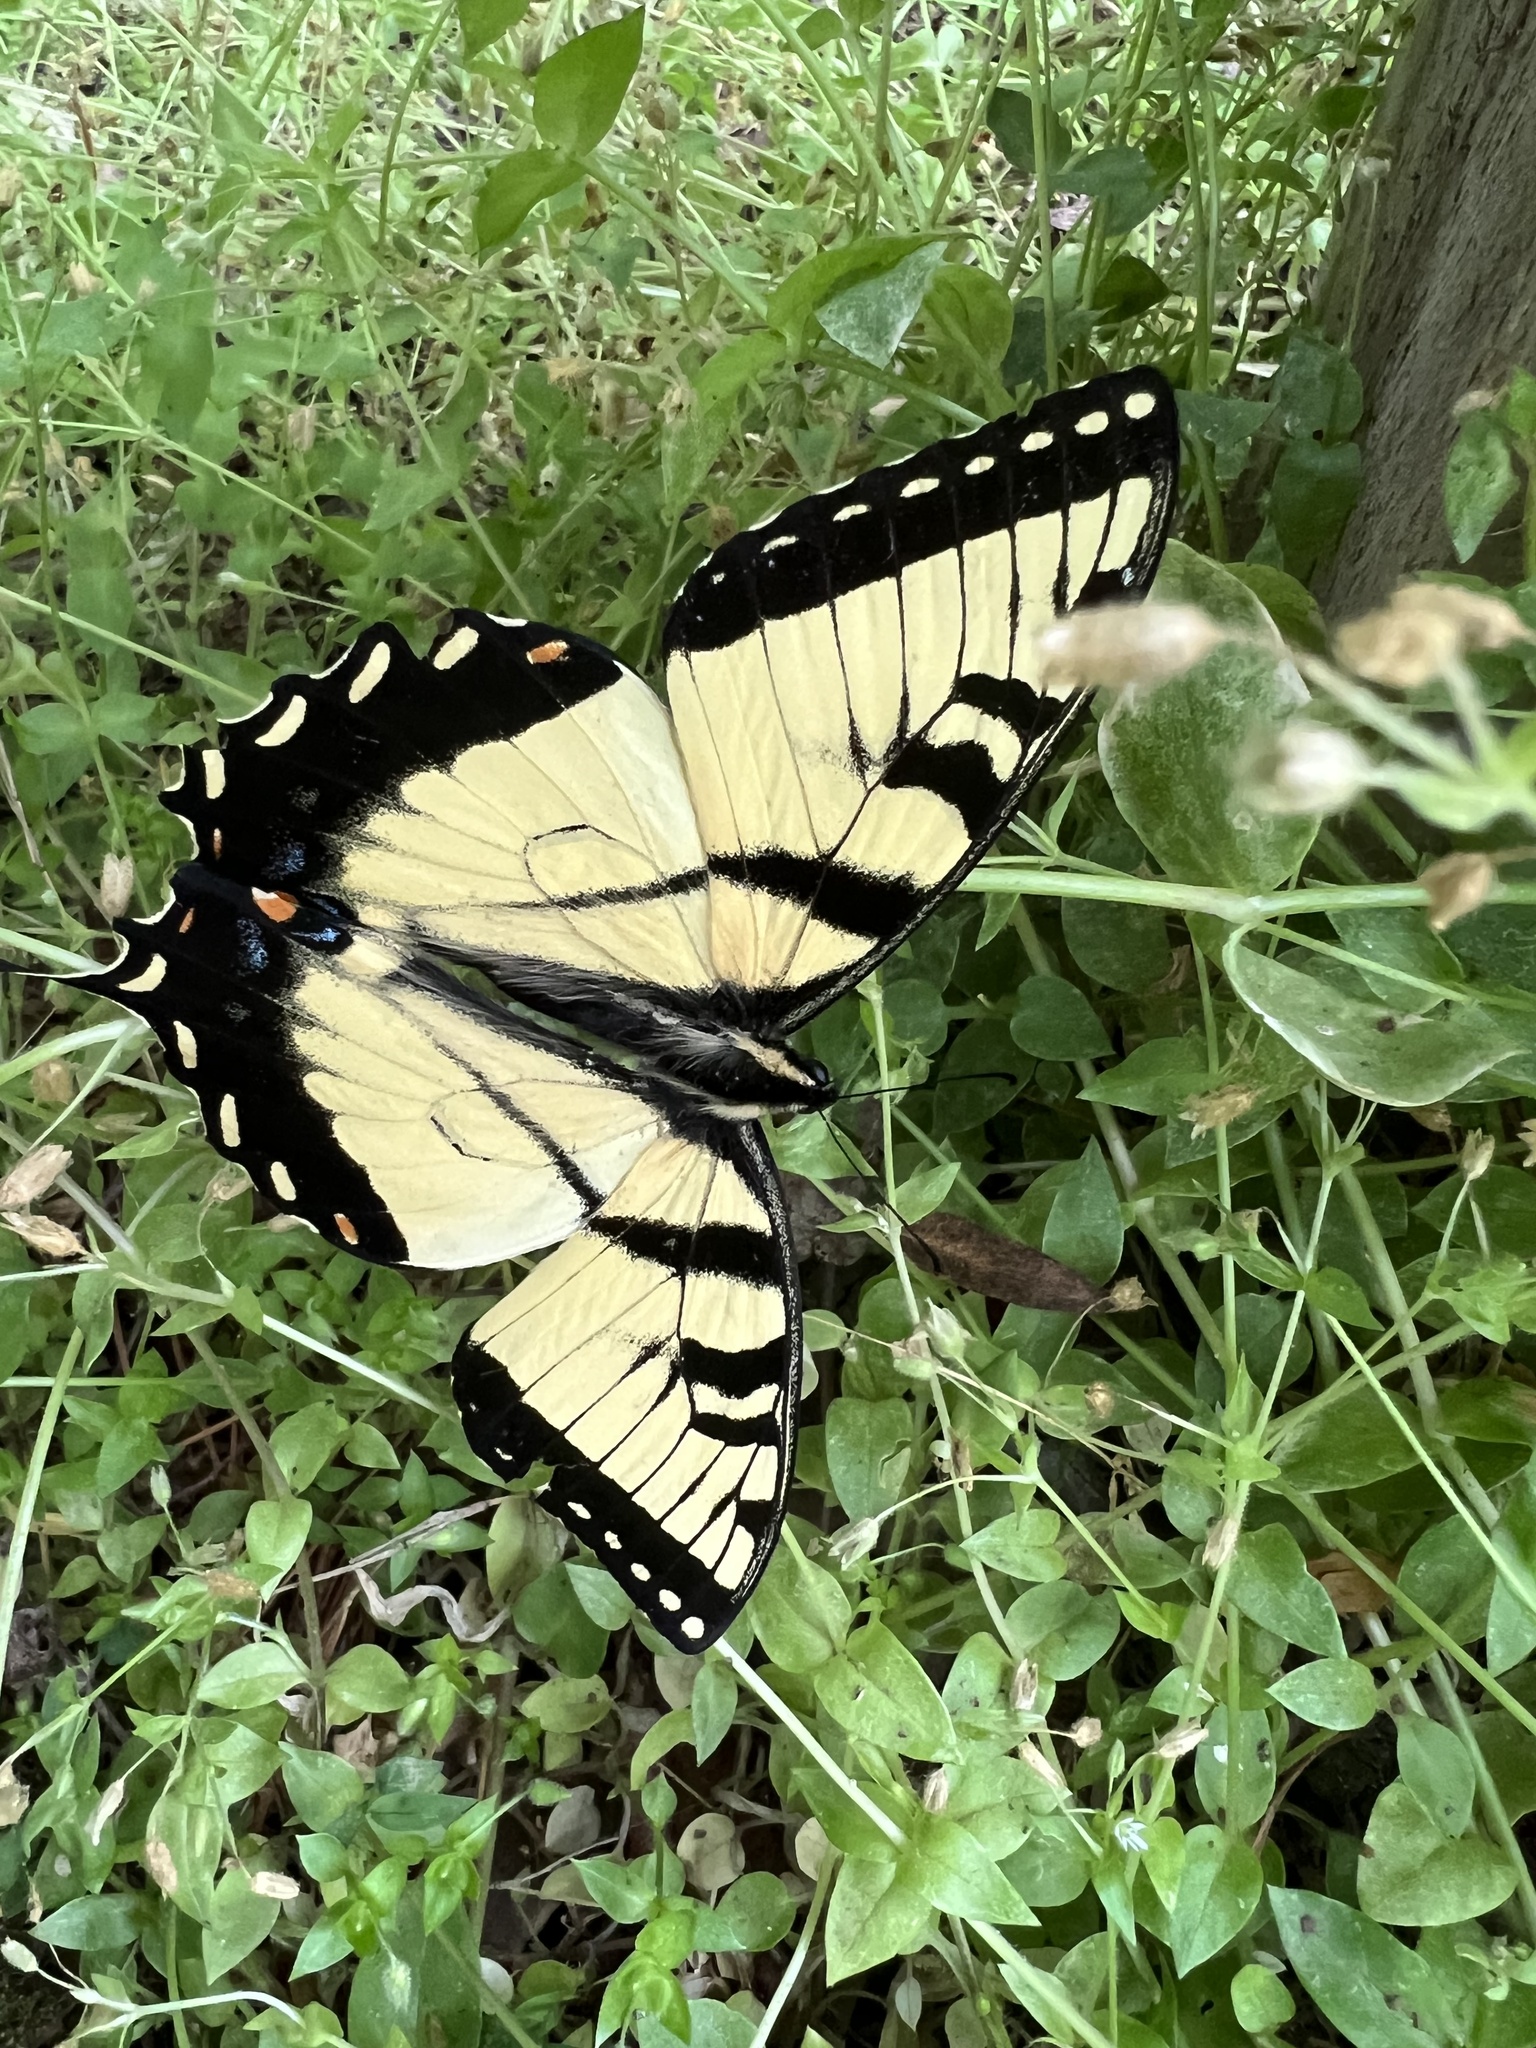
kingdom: Animalia
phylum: Arthropoda
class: Insecta
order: Lepidoptera
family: Papilionidae
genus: Papilio
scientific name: Papilio glaucus
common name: Tiger swallowtail
